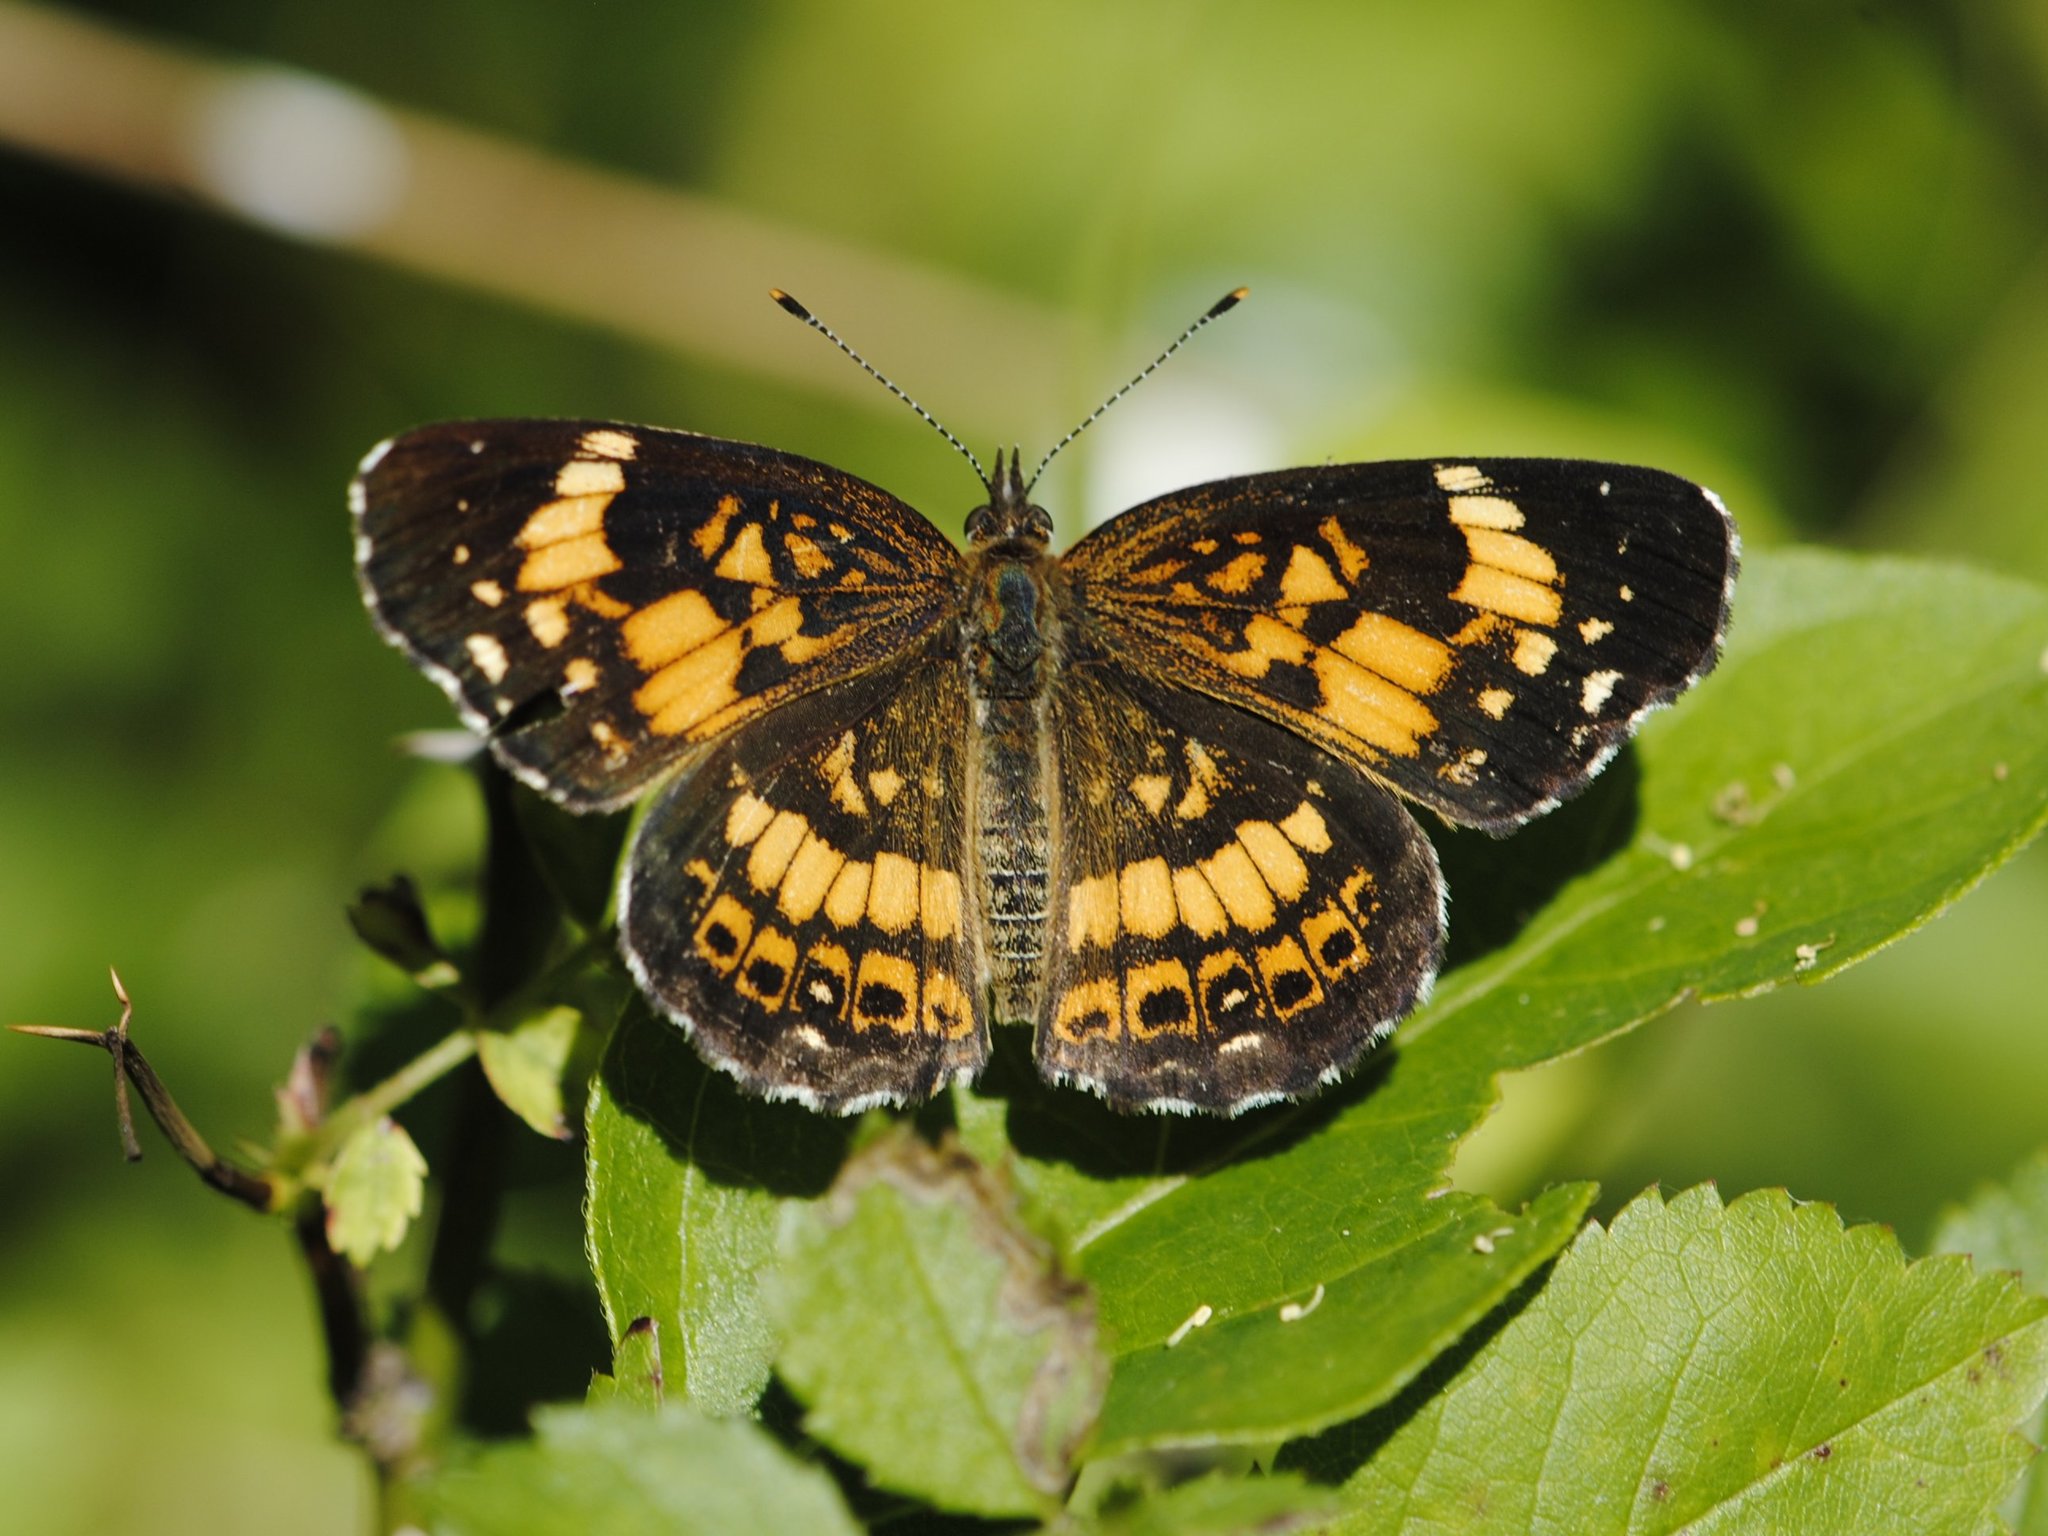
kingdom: Animalia
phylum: Arthropoda
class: Insecta
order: Lepidoptera
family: Nymphalidae
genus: Chlosyne
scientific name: Chlosyne nycteis
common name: Silvery checkerspot
